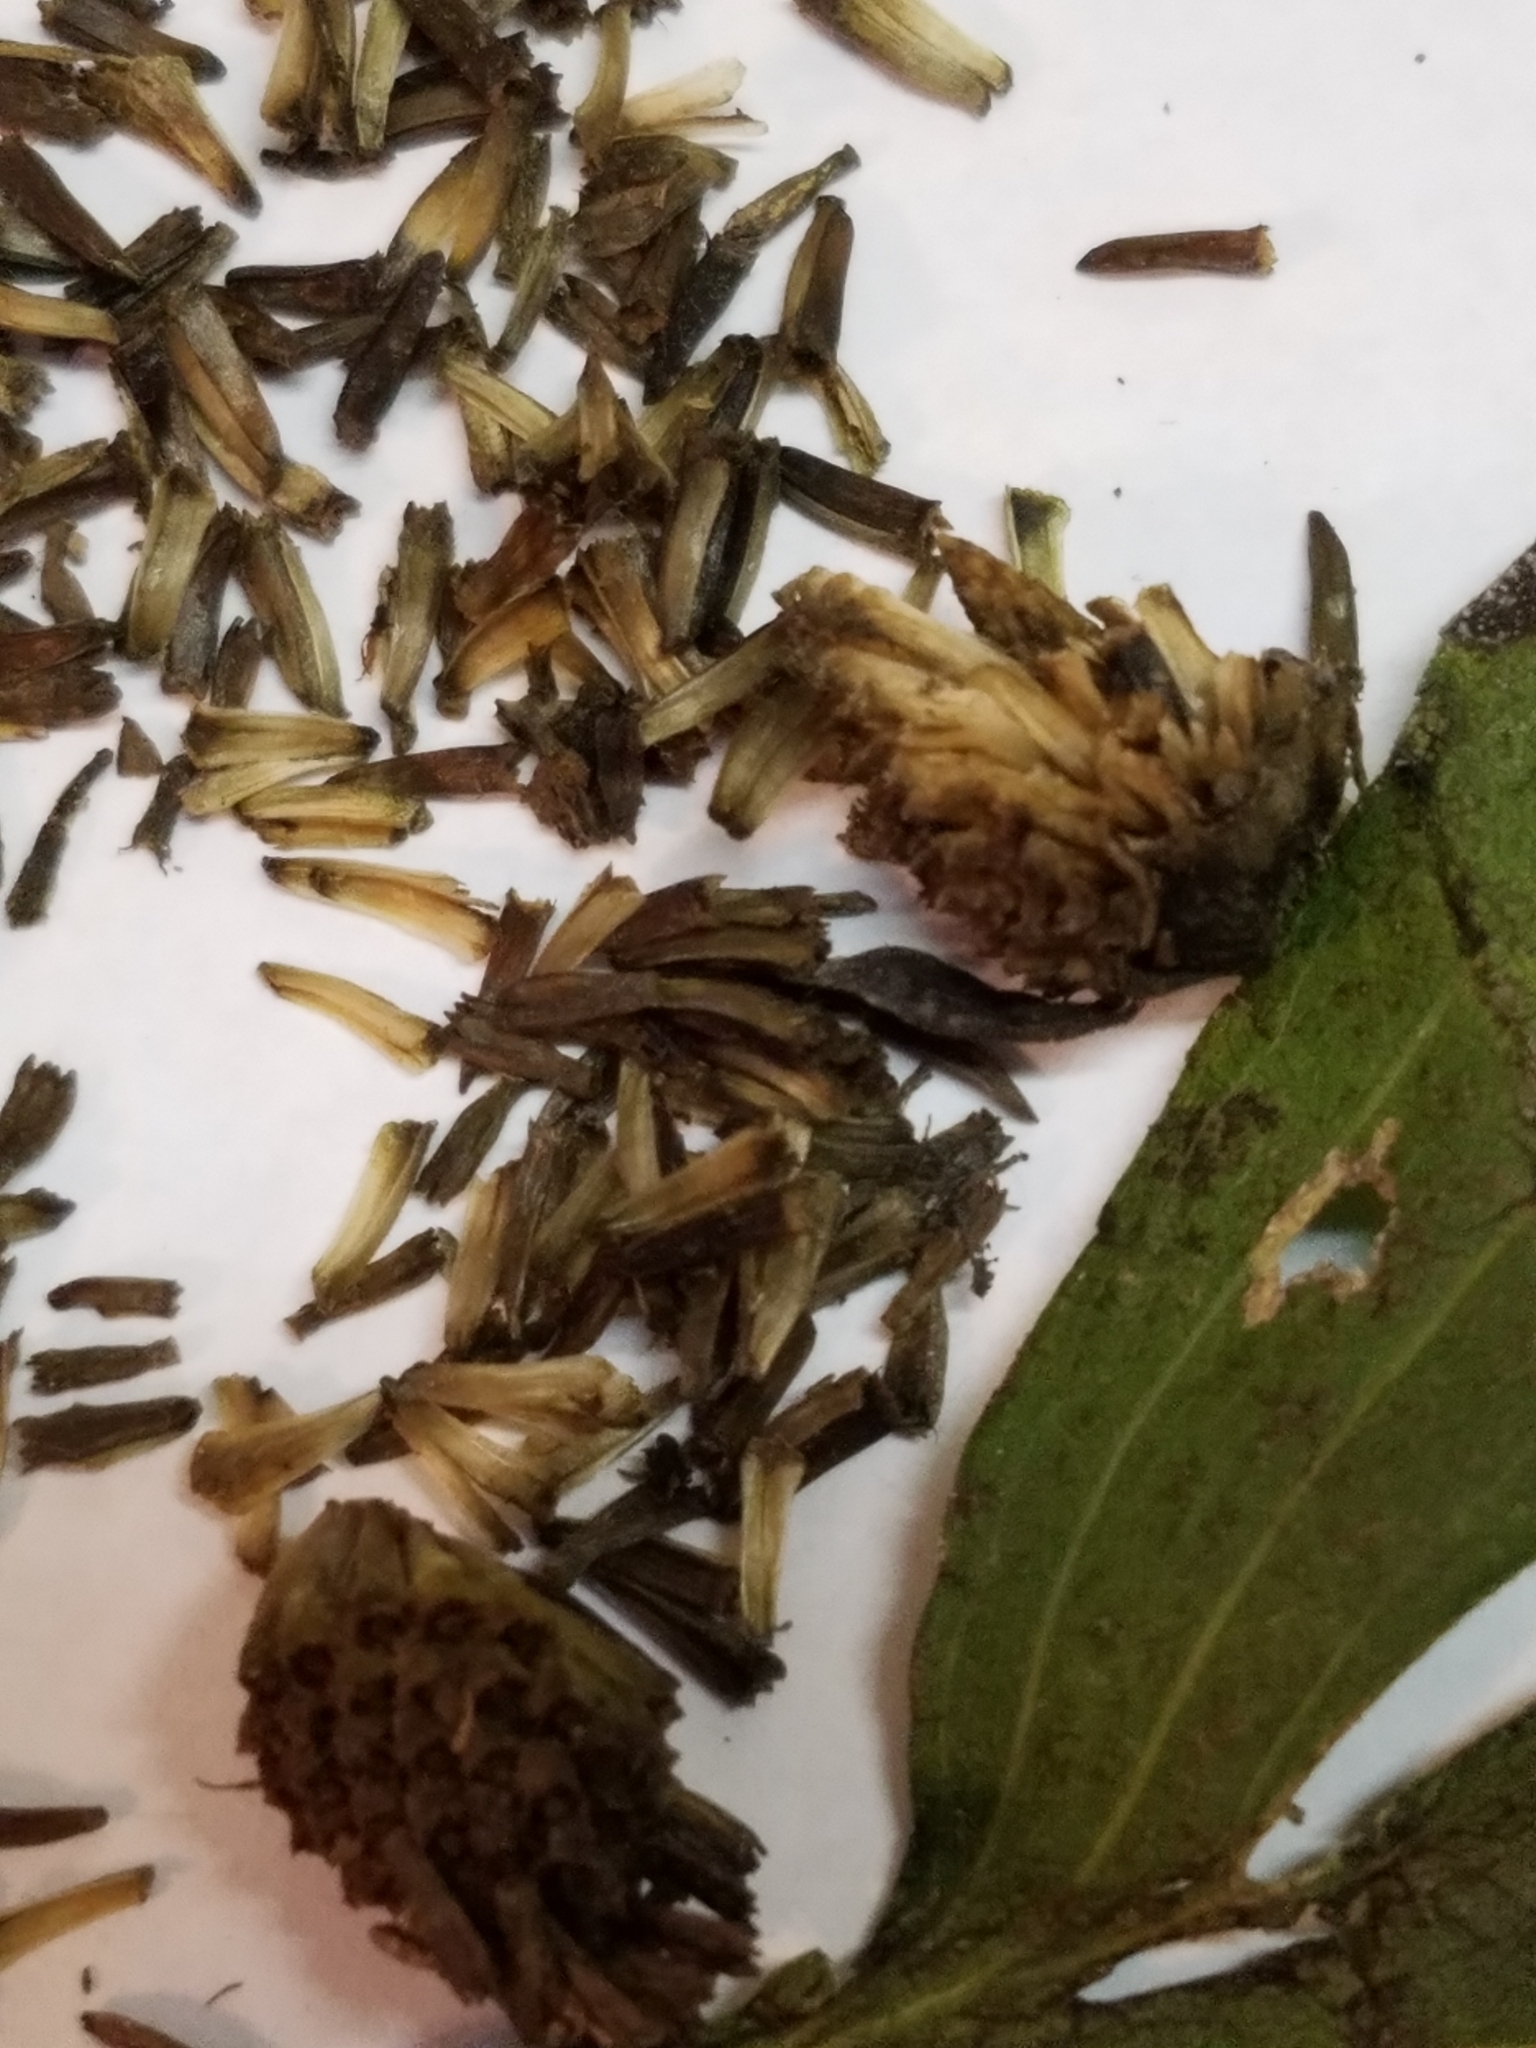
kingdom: Plantae
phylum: Tracheophyta
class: Magnoliopsida
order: Asterales
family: Asteraceae
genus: Rudbeckia
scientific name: Rudbeckia laciniata
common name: Coneflower
